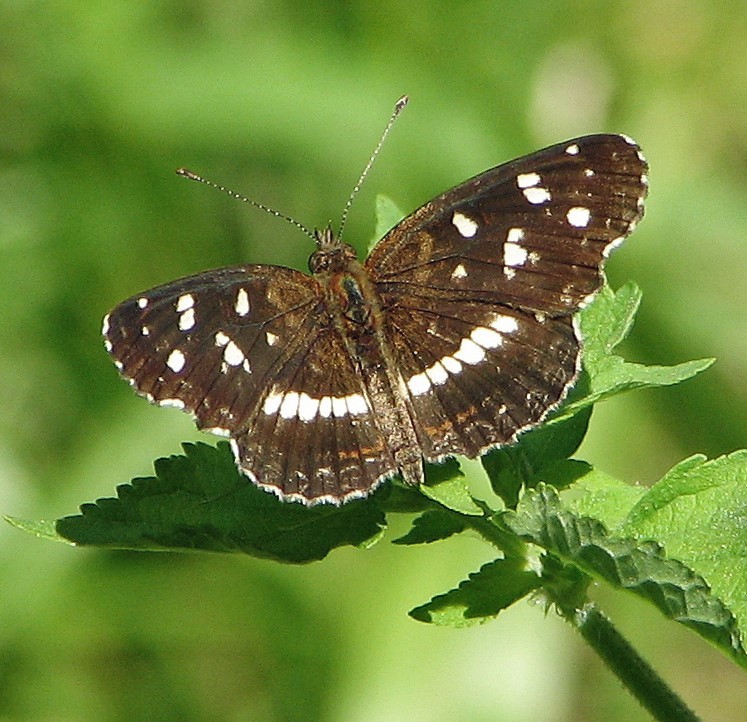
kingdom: Animalia
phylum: Arthropoda
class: Insecta
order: Lepidoptera
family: Nymphalidae
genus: Ortilia
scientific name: Ortilia ithra
